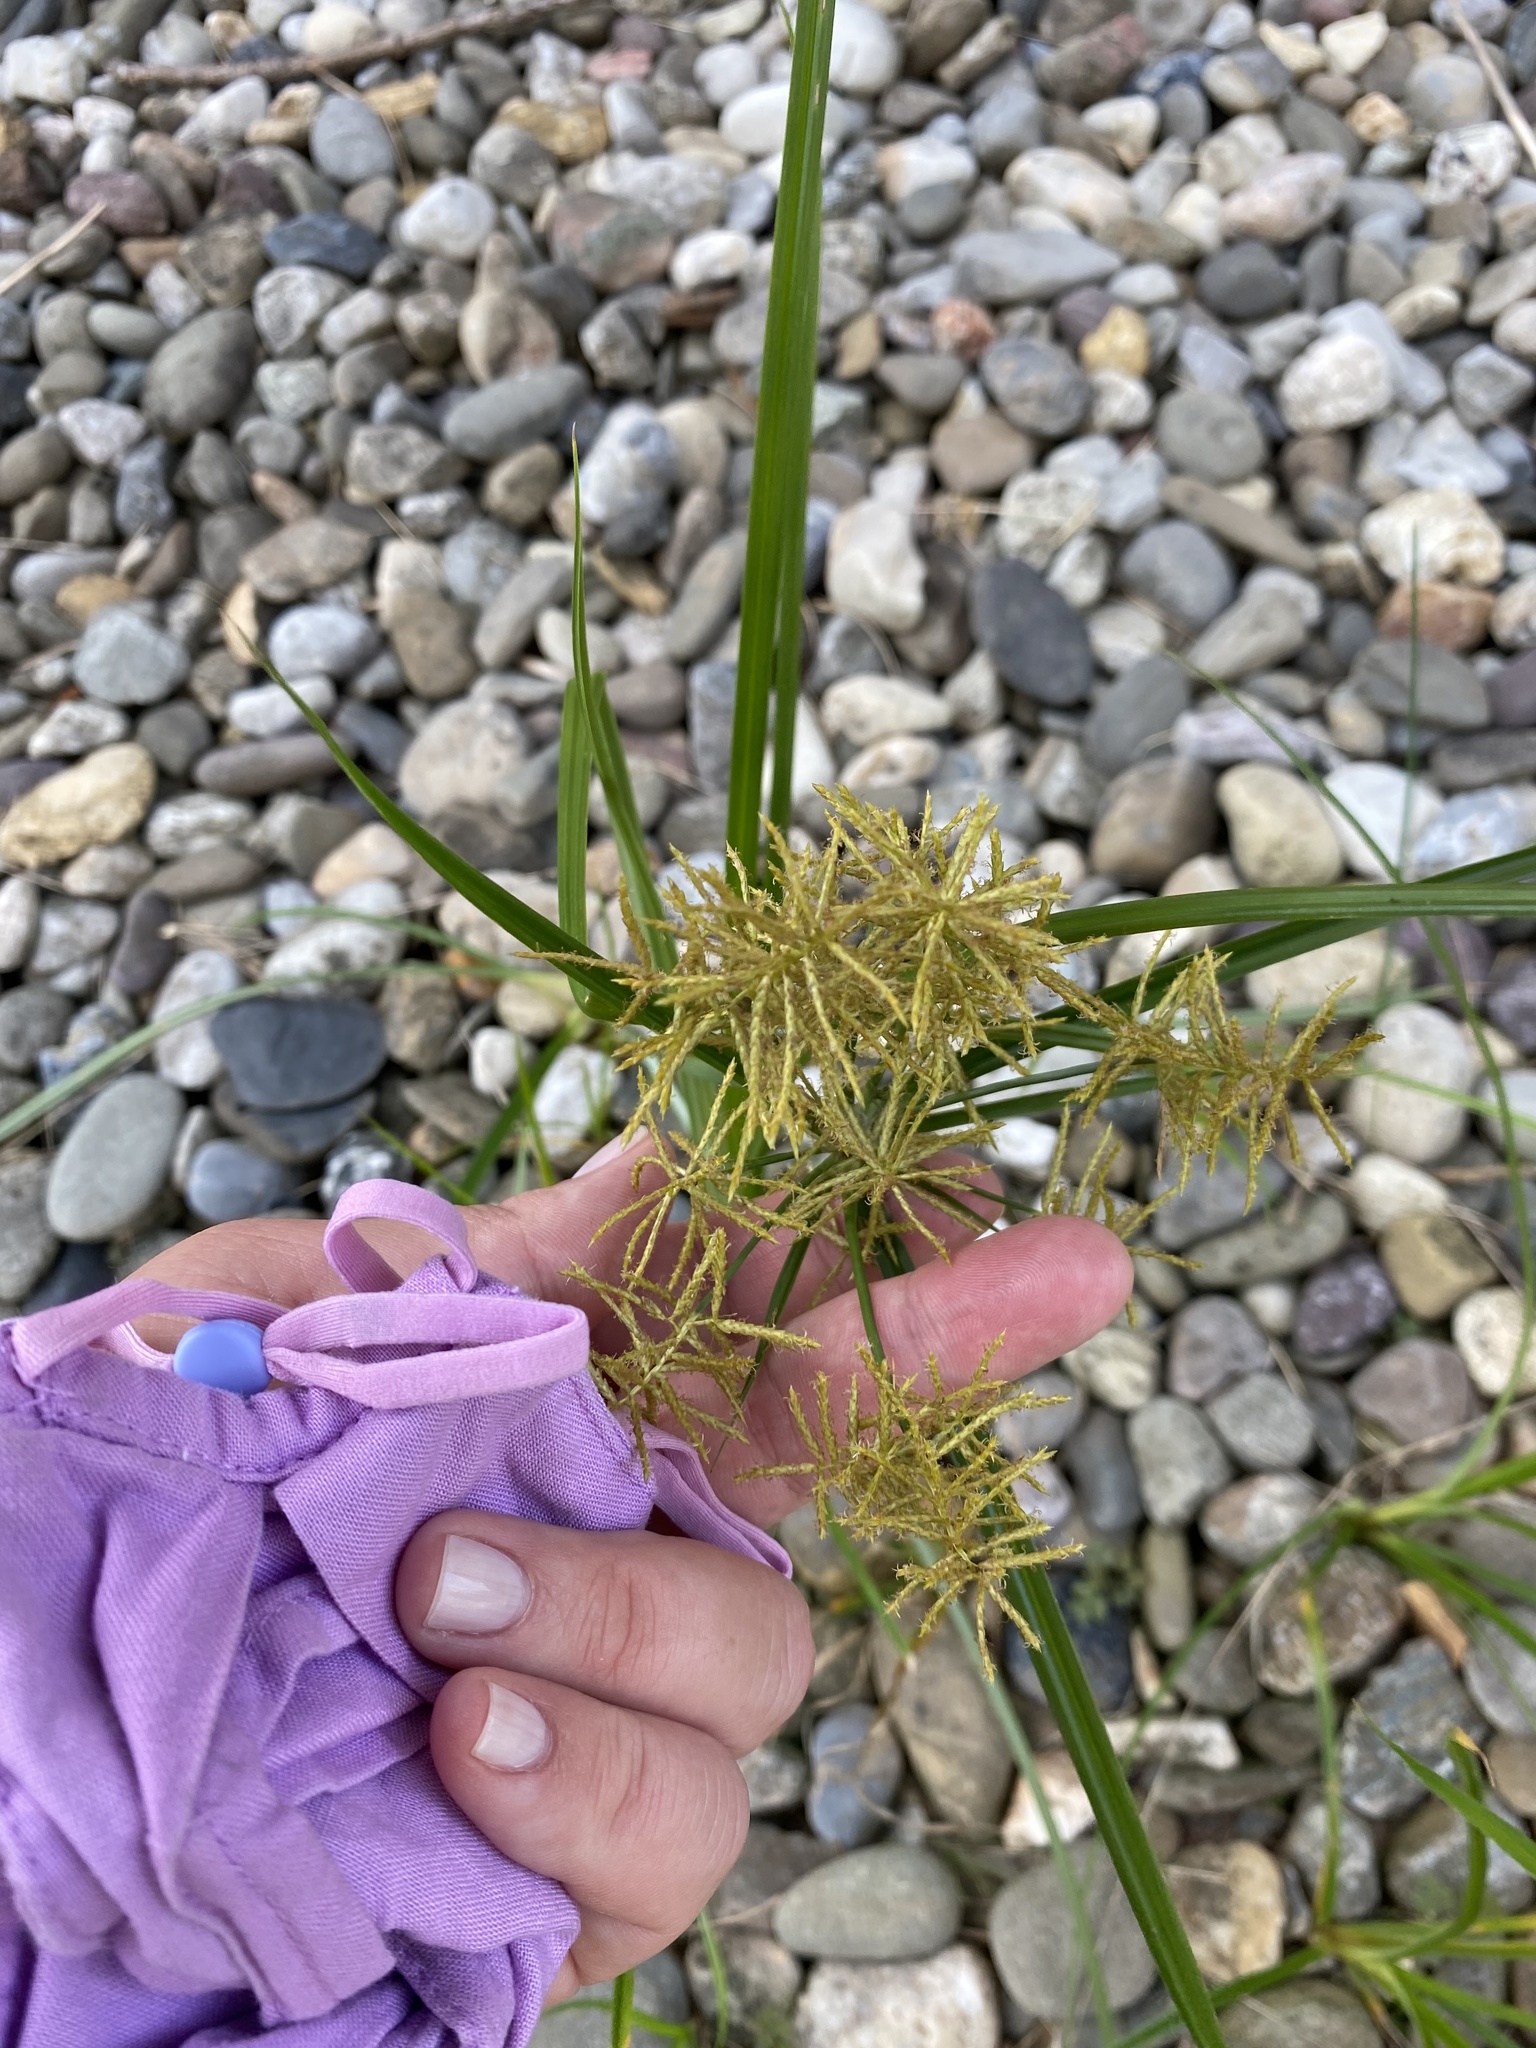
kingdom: Plantae
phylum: Tracheophyta
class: Liliopsida
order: Poales
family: Cyperaceae
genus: Cyperus
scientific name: Cyperus esculentus
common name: Yellow nutsedge
